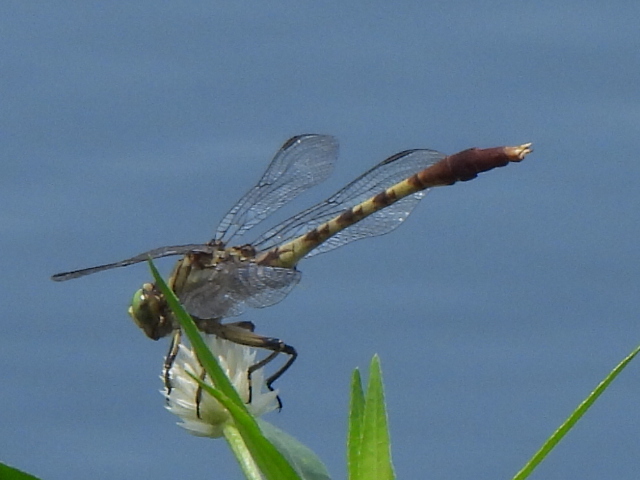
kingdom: Animalia
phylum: Arthropoda
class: Insecta
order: Odonata
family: Gomphidae
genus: Arigomphus
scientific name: Arigomphus submedianus
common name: Jade clubtail
